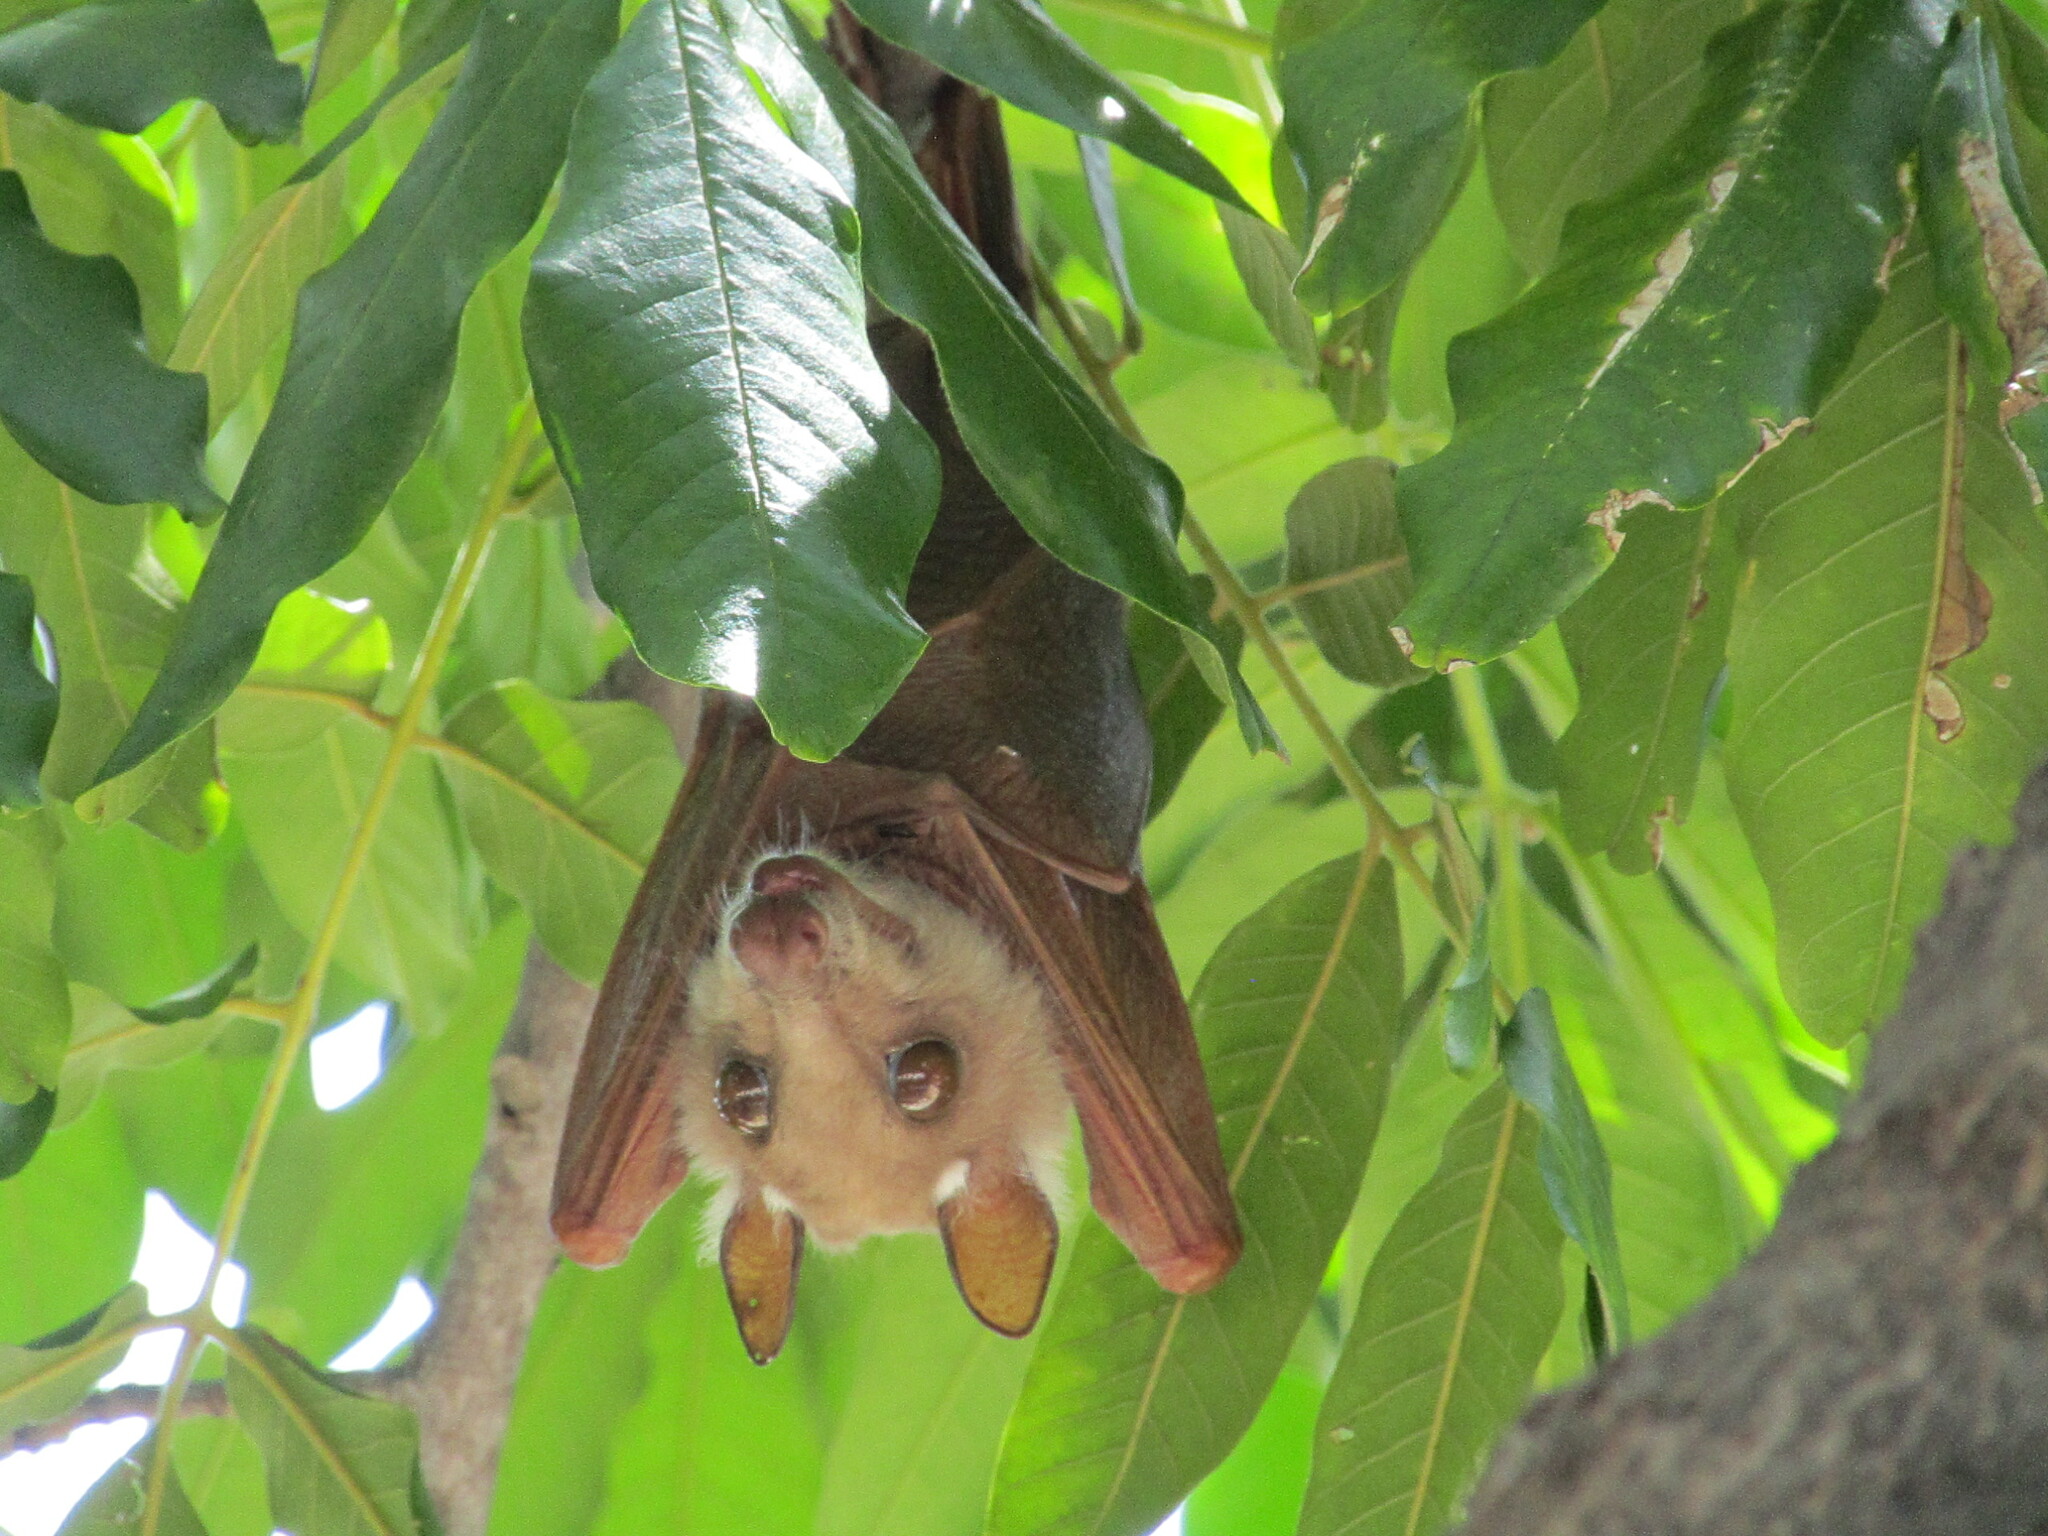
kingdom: Animalia
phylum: Chordata
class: Mammalia
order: Chiroptera
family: Pteropodidae
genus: Epomophorus
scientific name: Epomophorus crypturus
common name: Smaller epauletted fruit bat
